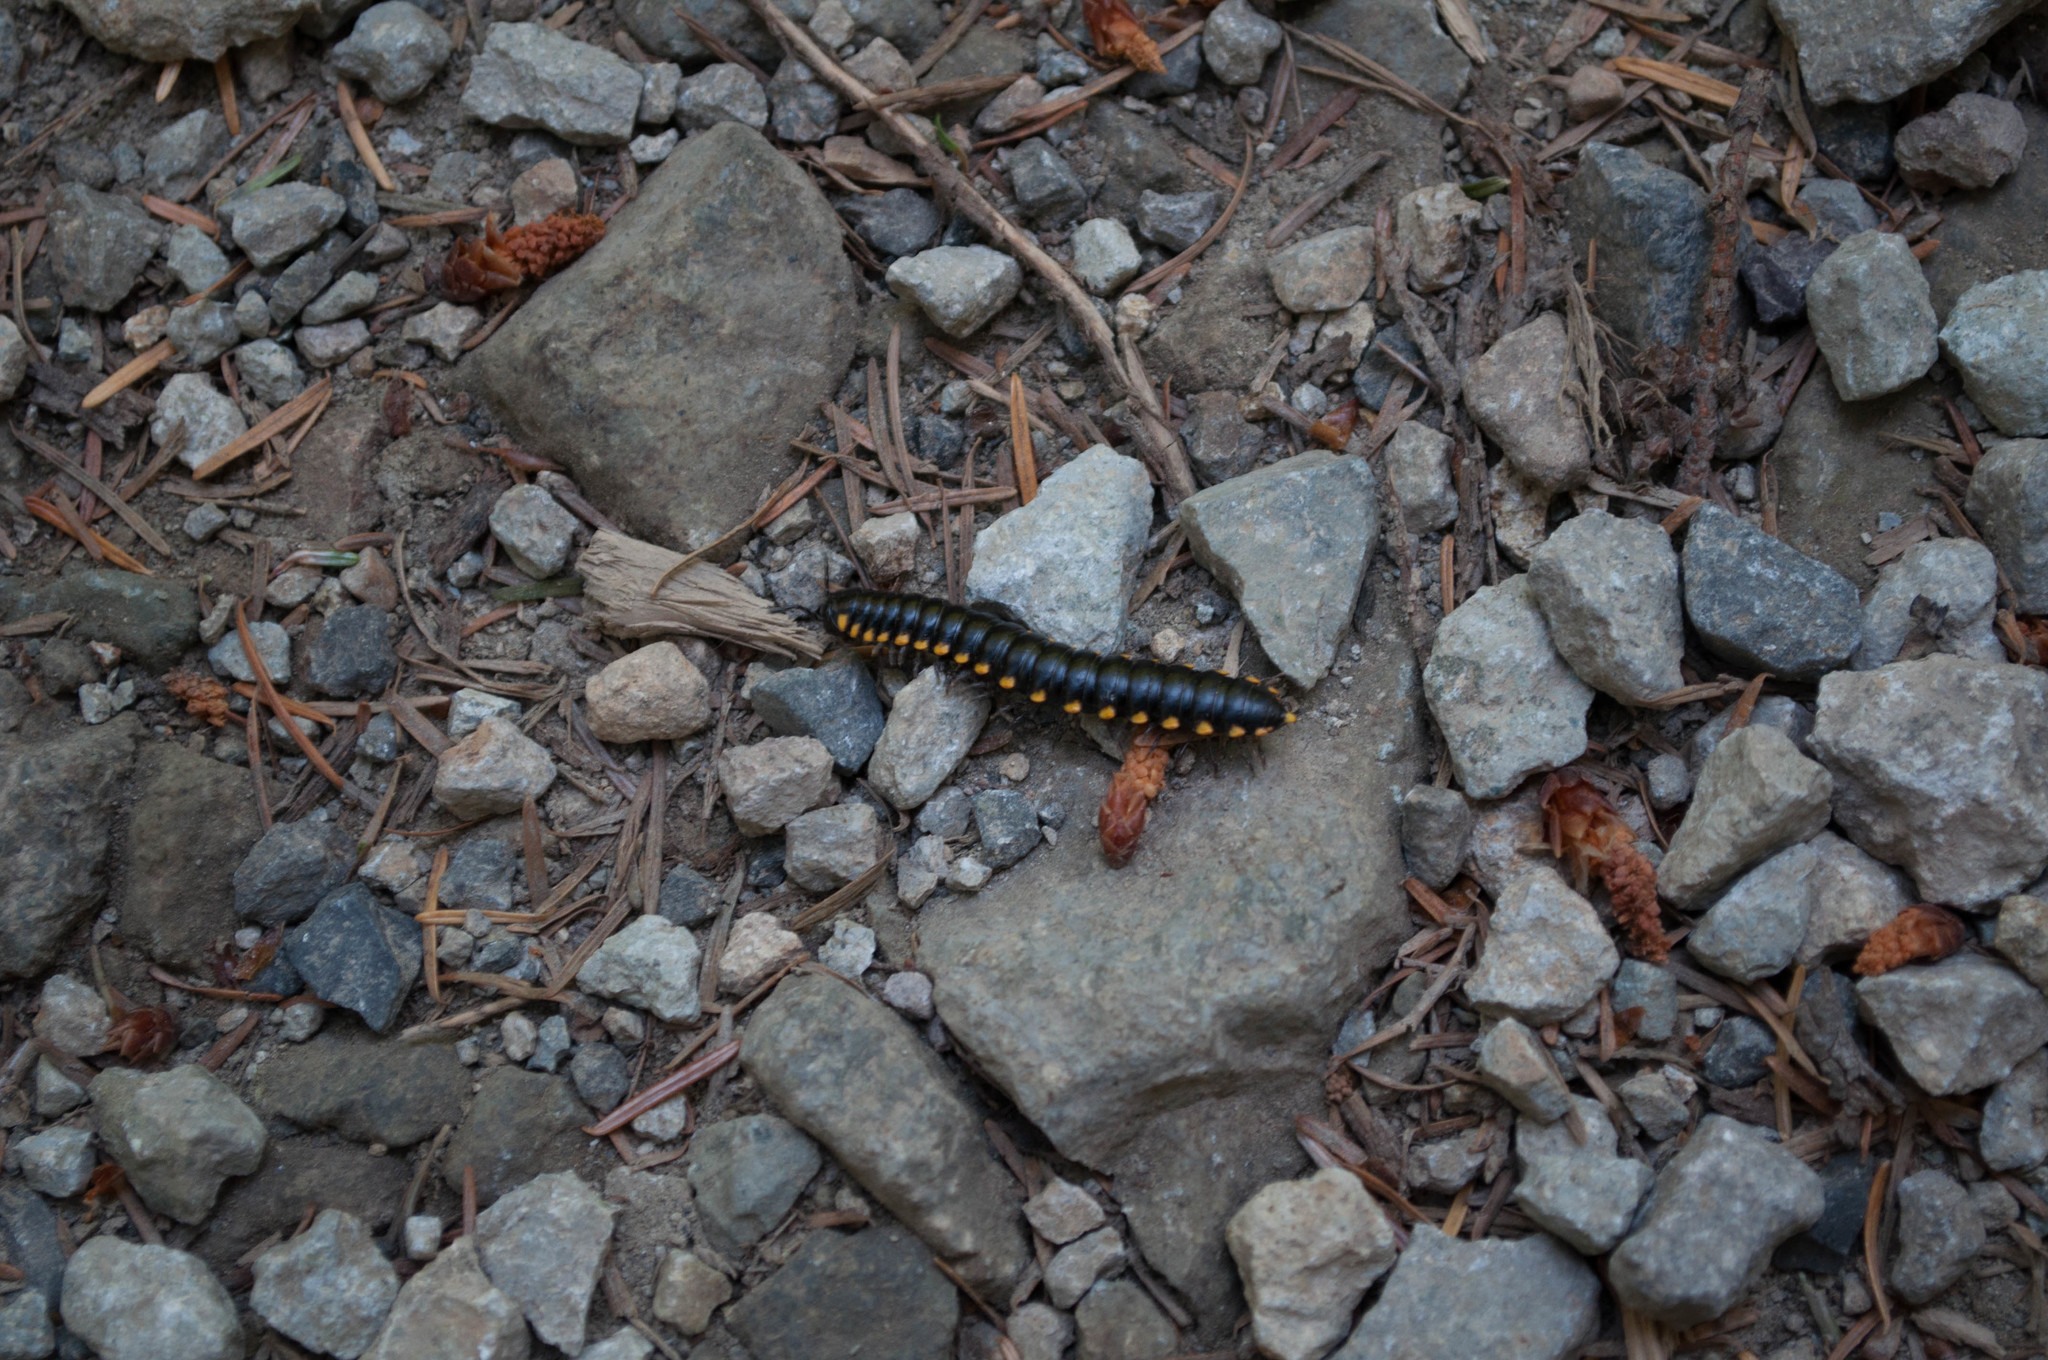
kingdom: Animalia
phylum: Arthropoda
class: Diplopoda
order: Polydesmida
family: Xystodesmidae
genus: Harpaphe
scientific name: Harpaphe haydeniana
